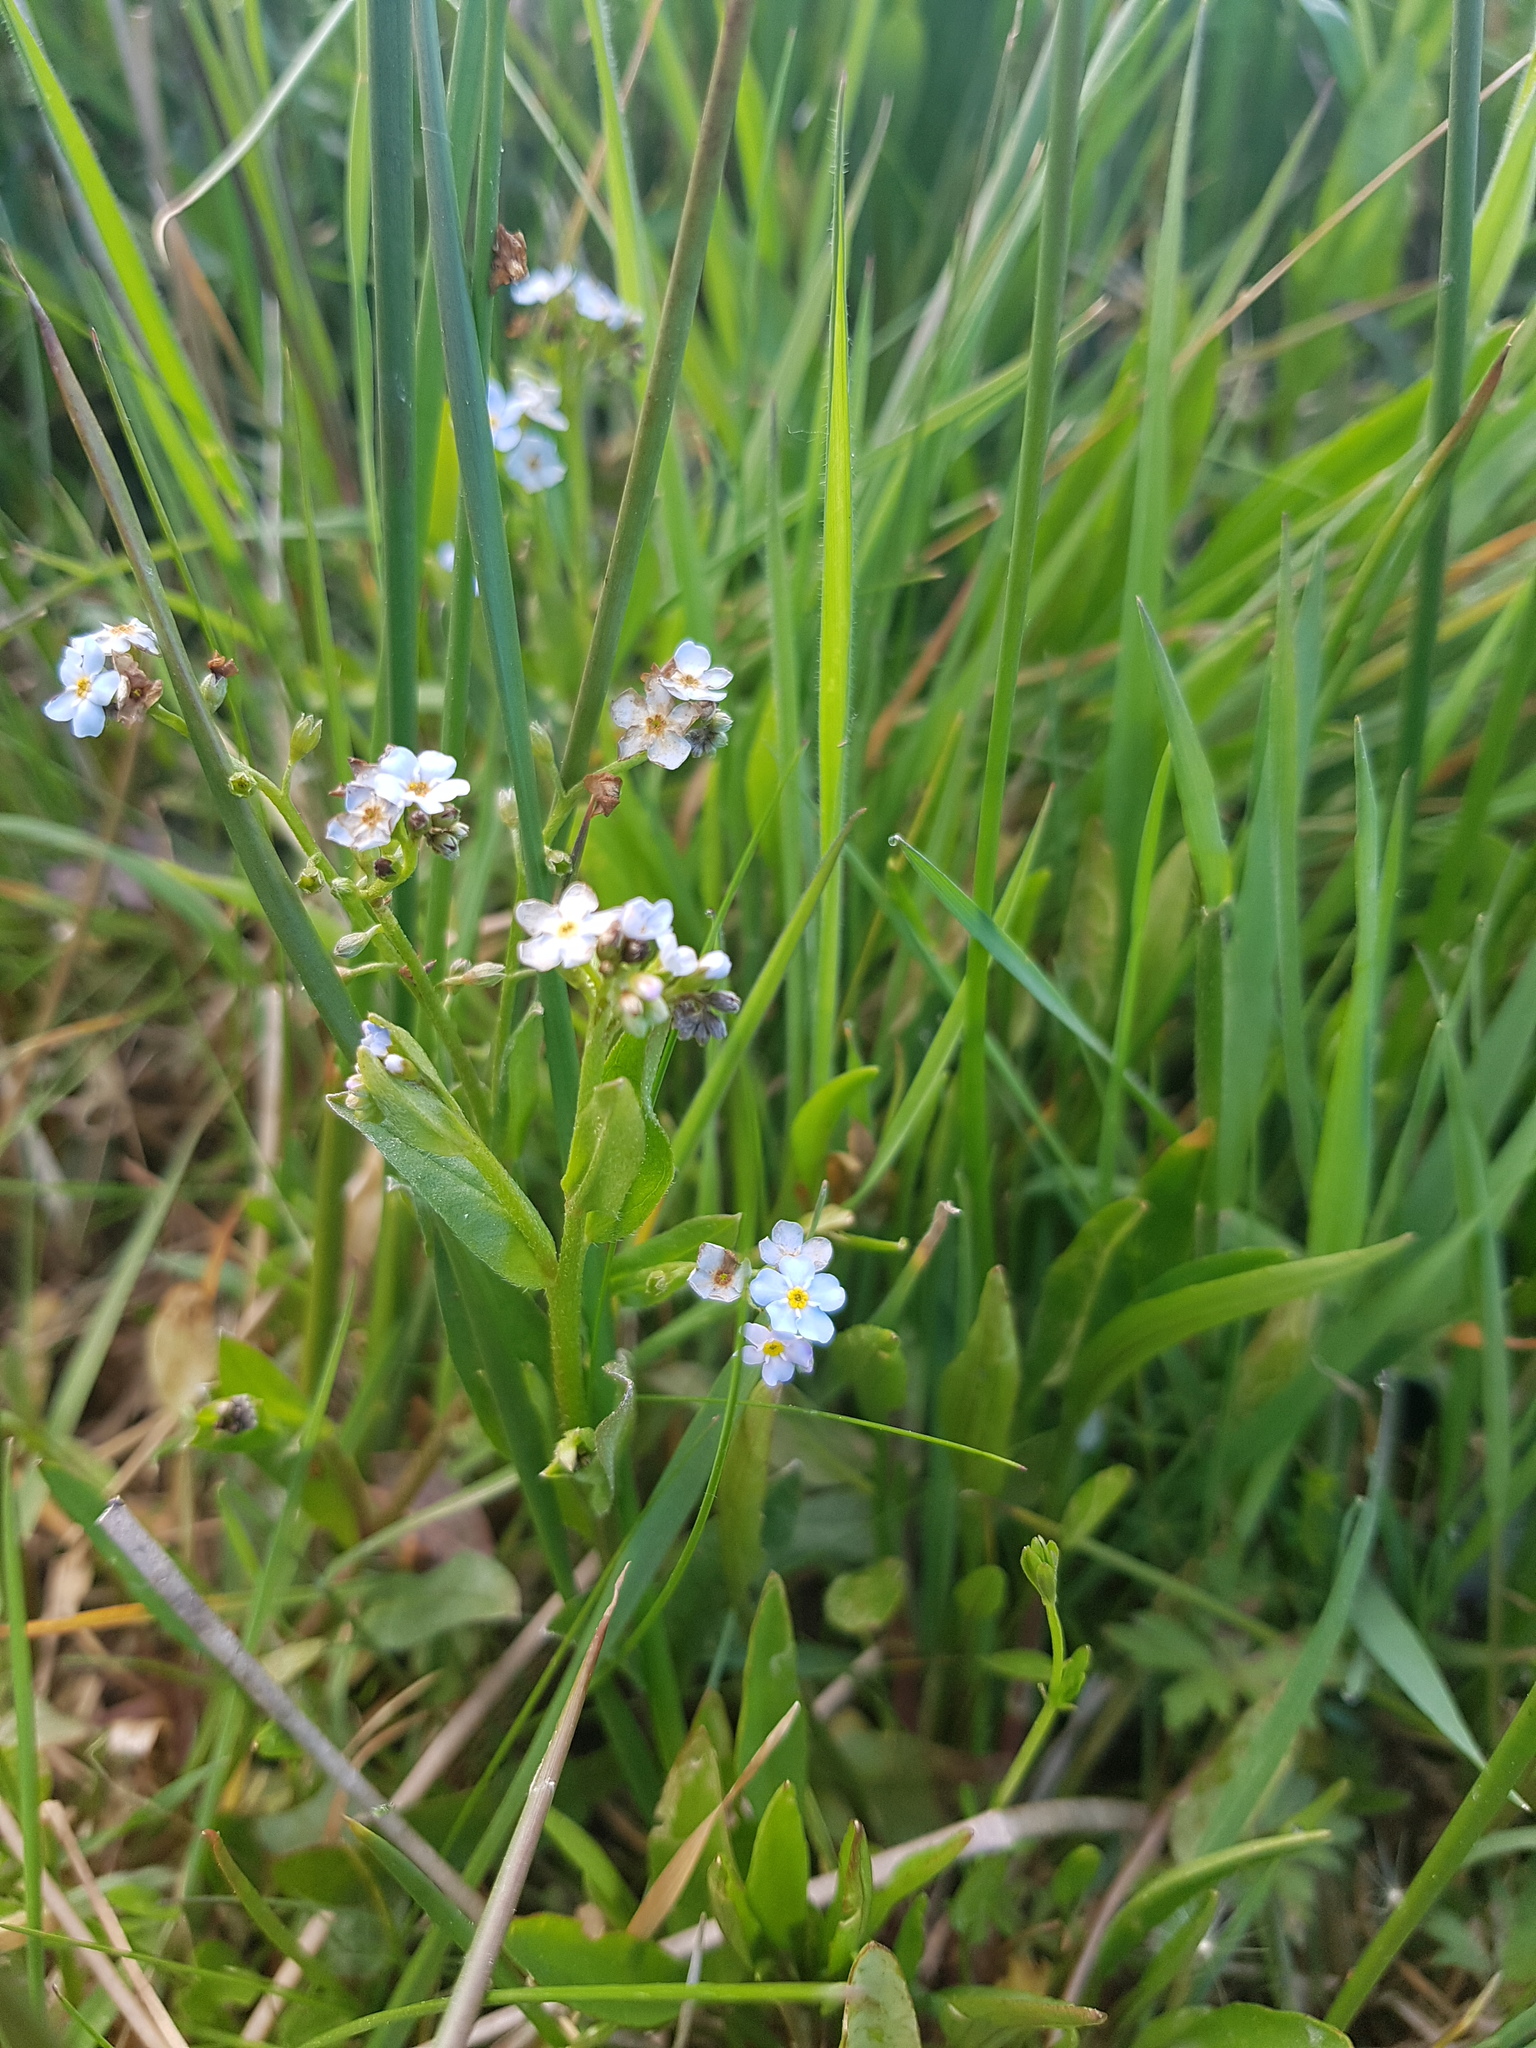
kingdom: Plantae
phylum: Tracheophyta
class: Magnoliopsida
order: Boraginales
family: Boraginaceae
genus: Myosotis
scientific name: Myosotis scorpioides
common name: Water forget-me-not
